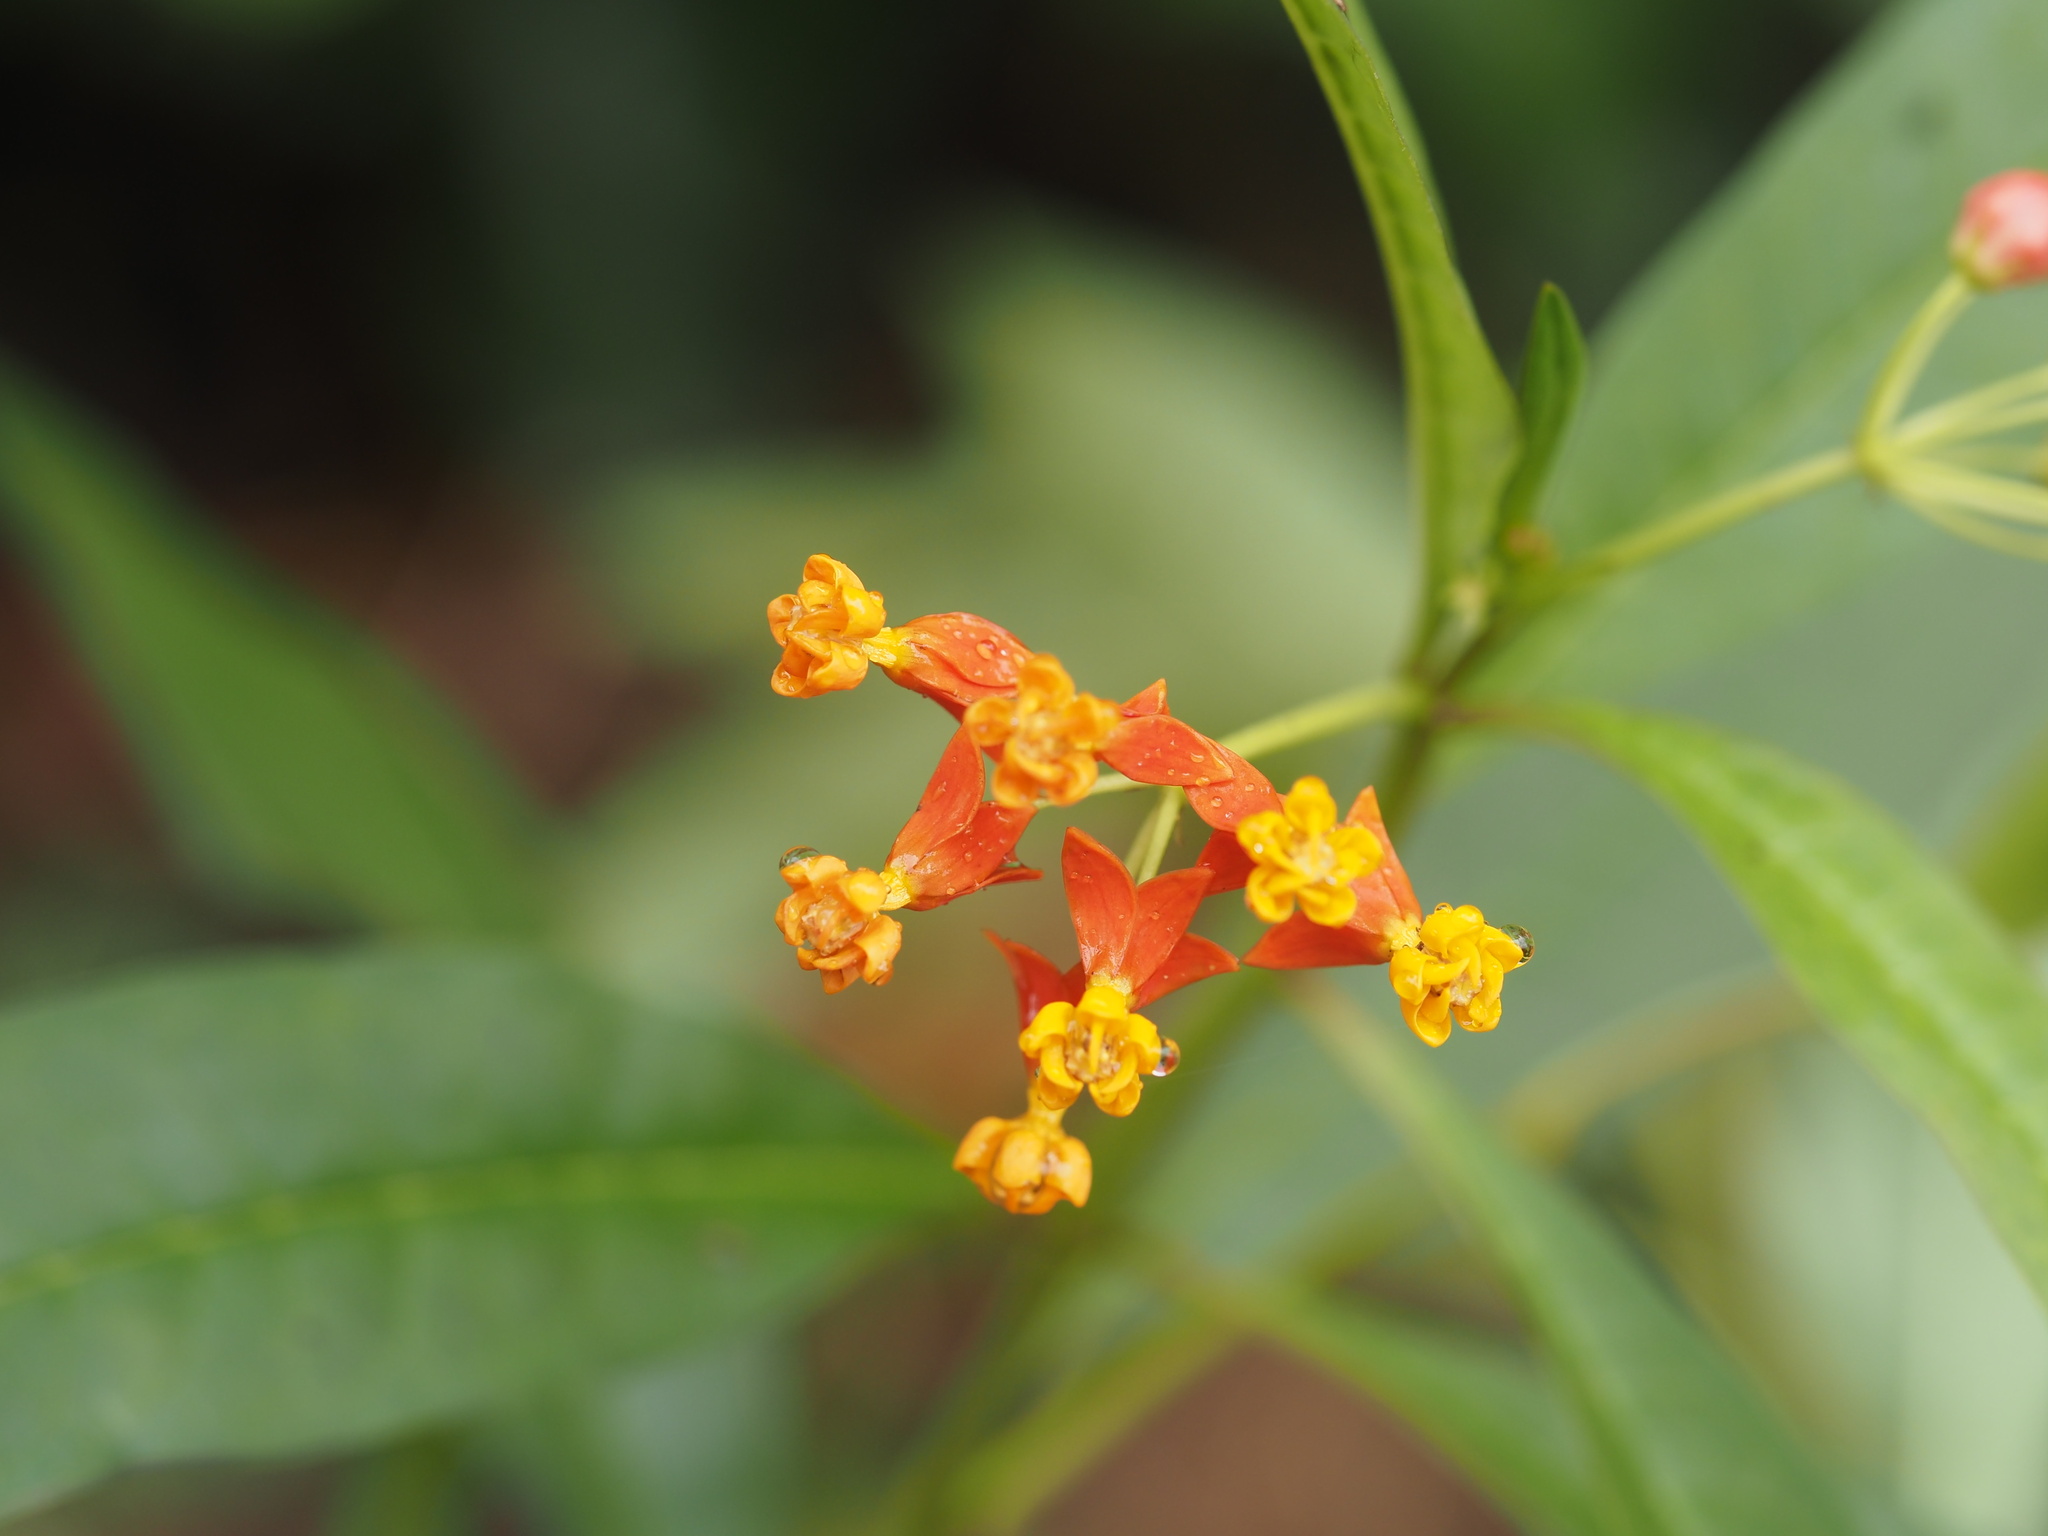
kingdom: Plantae
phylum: Tracheophyta
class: Magnoliopsida
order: Gentianales
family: Apocynaceae
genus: Asclepias
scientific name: Asclepias curassavica
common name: Bloodflower
